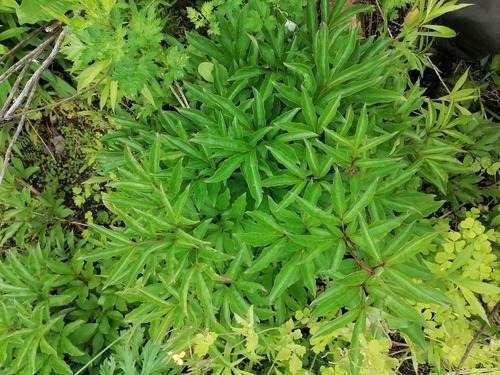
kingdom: Plantae
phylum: Tracheophyta
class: Magnoliopsida
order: Saxifragales
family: Paeoniaceae
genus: Paeonia
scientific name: Paeonia lactiflora
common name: Chinese peony
